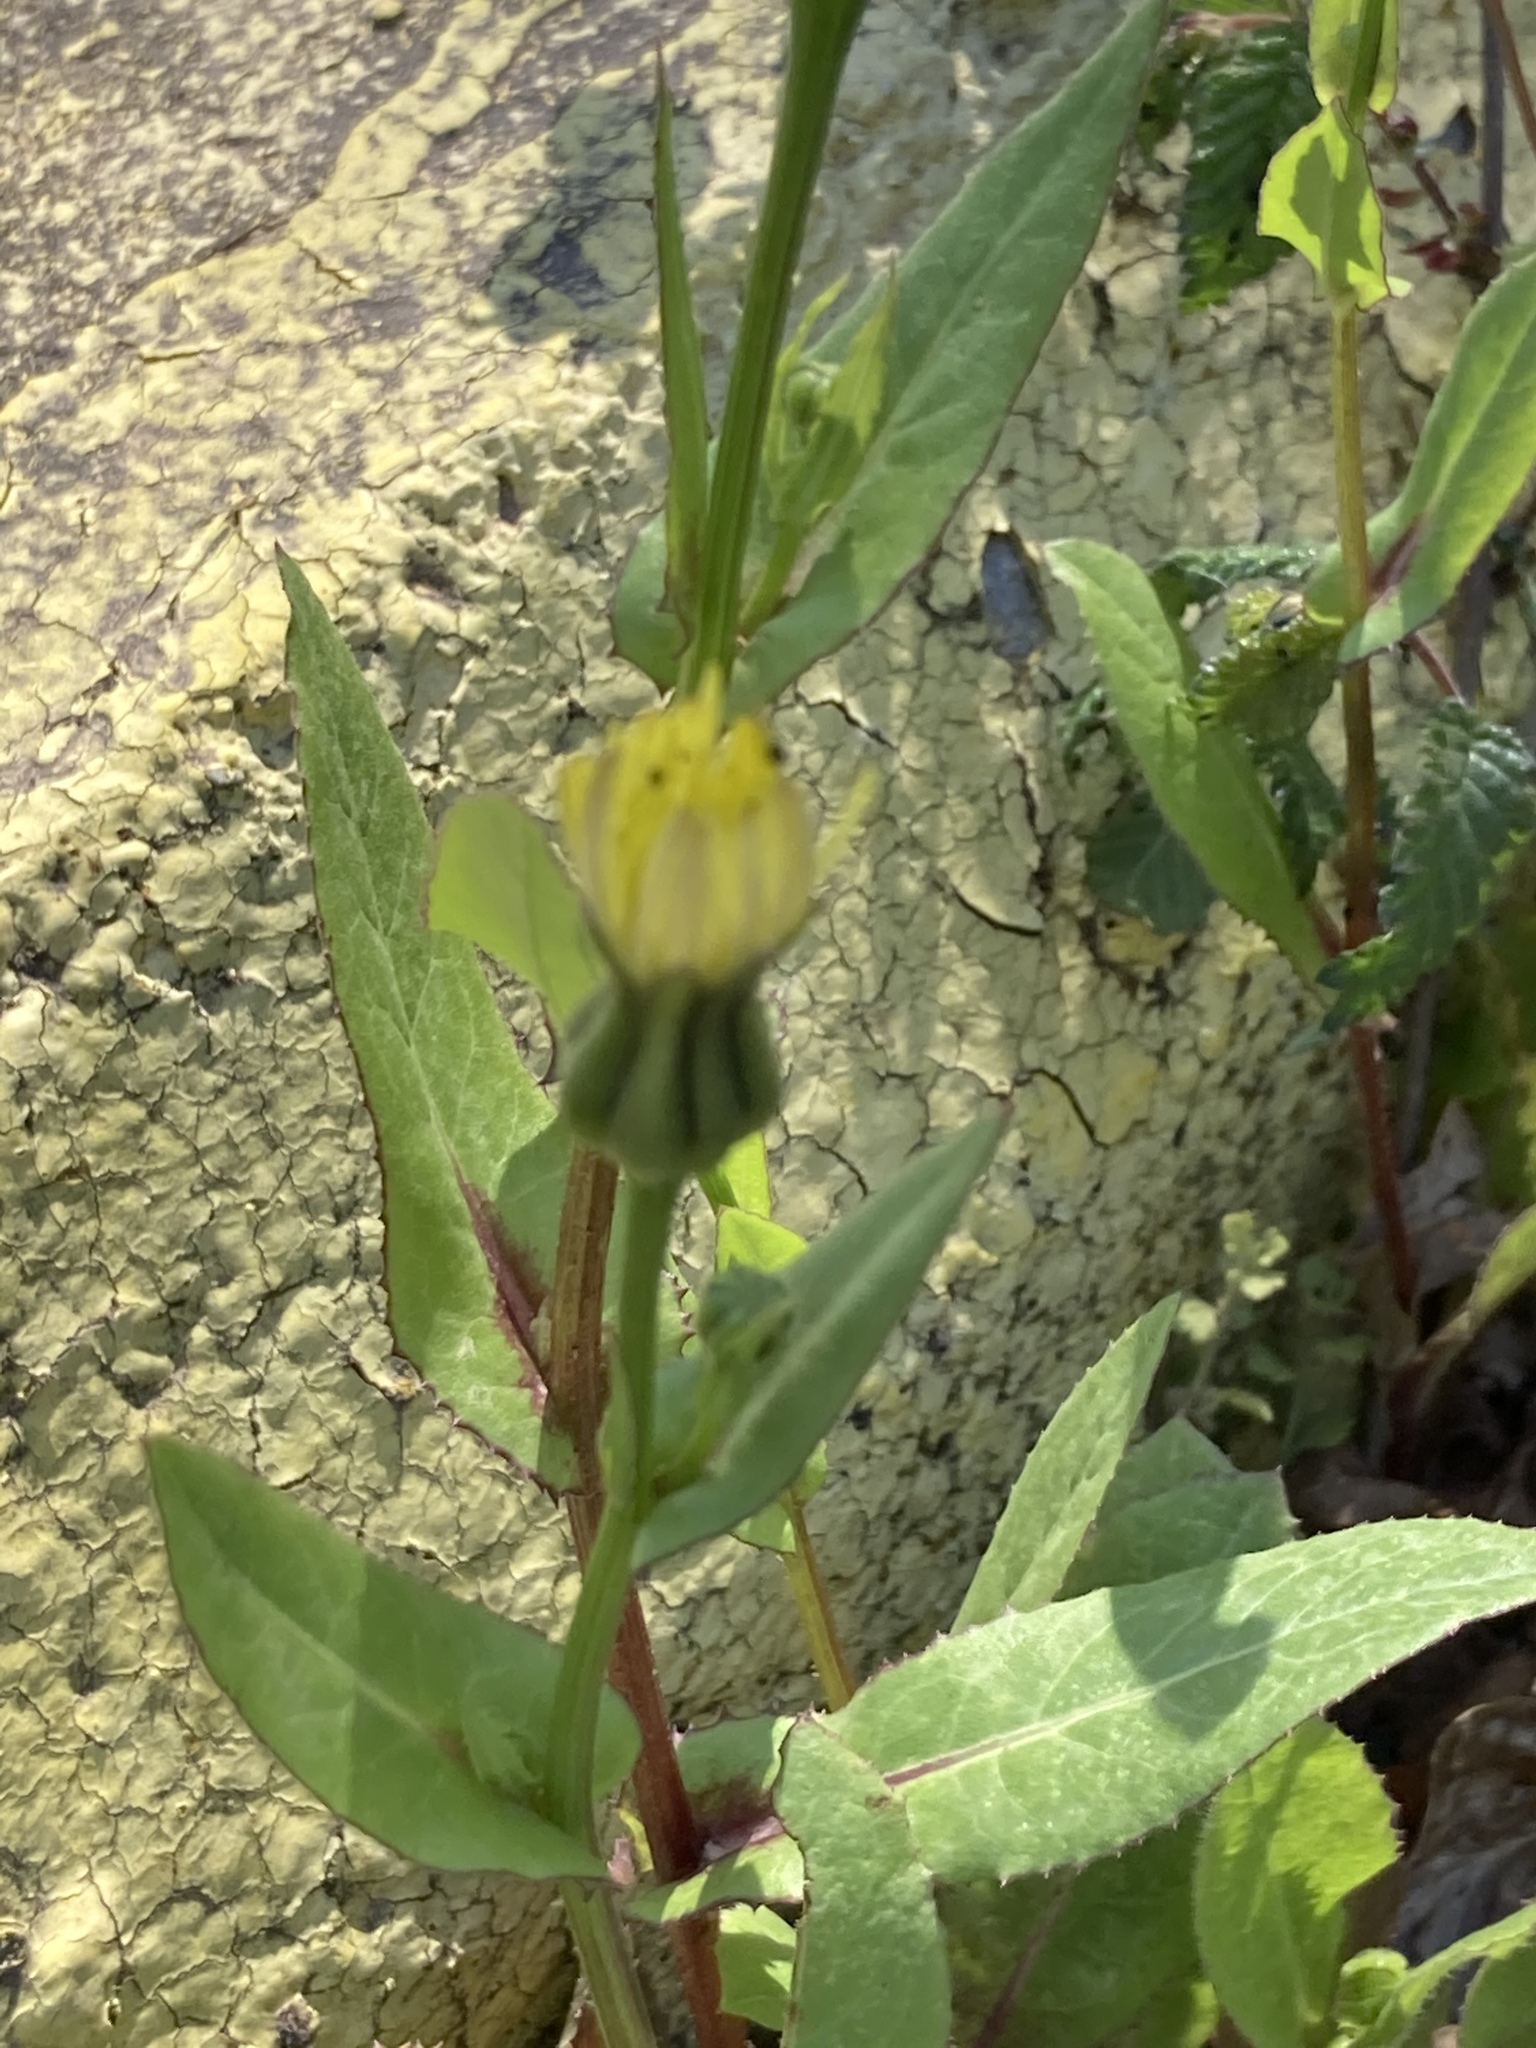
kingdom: Plantae
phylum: Tracheophyta
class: Magnoliopsida
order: Asterales
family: Asteraceae
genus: Urospermum
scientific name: Urospermum picroides
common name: False hawkbit
